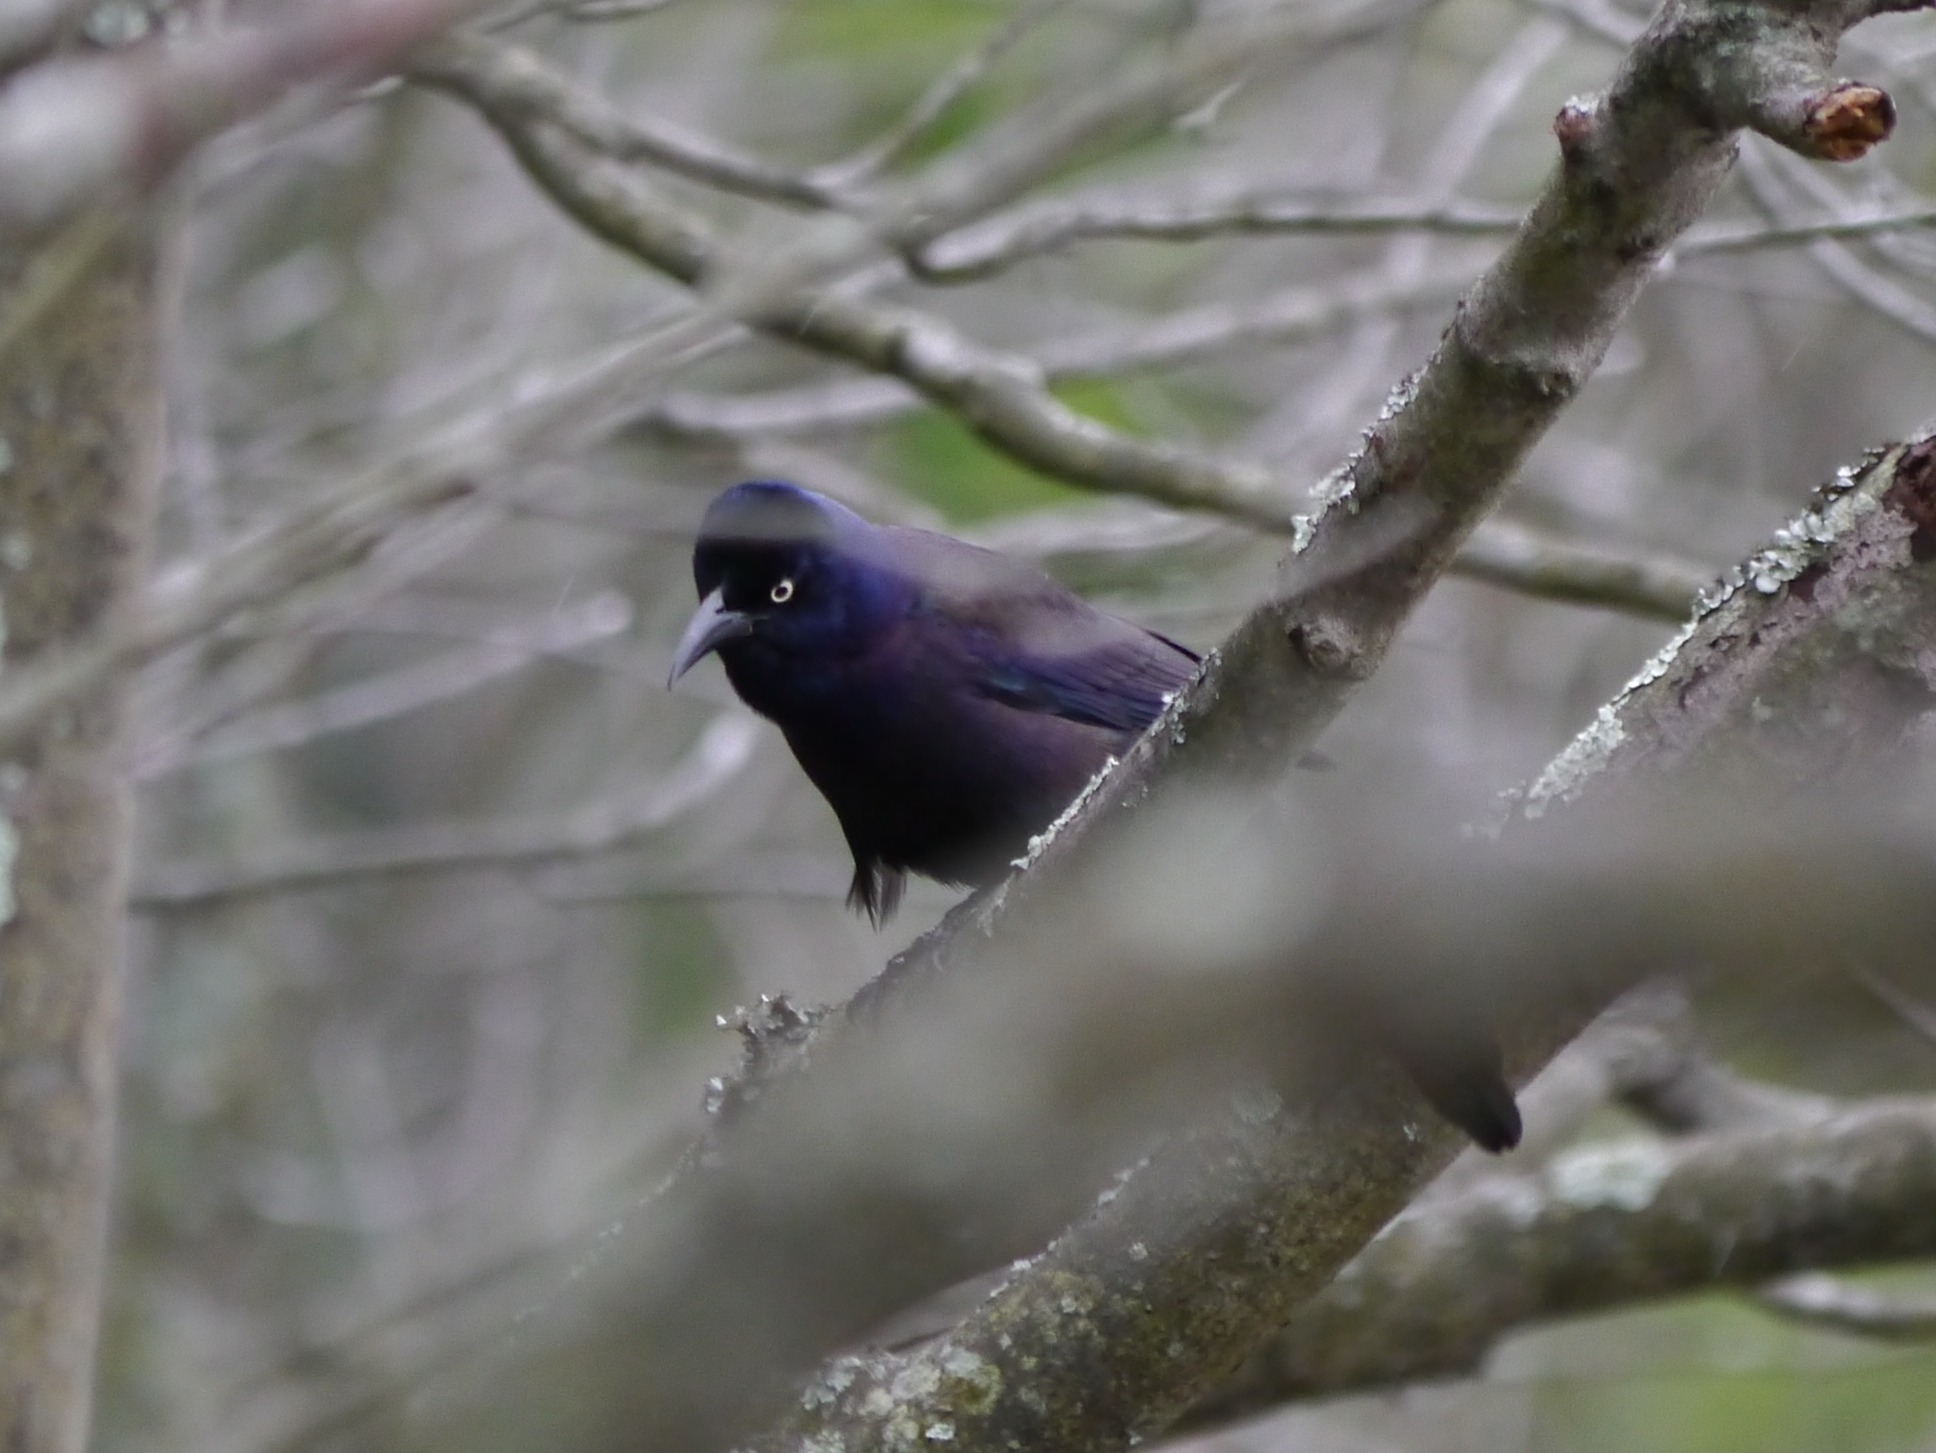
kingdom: Animalia
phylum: Chordata
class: Aves
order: Passeriformes
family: Icteridae
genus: Quiscalus
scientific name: Quiscalus quiscula
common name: Common grackle
